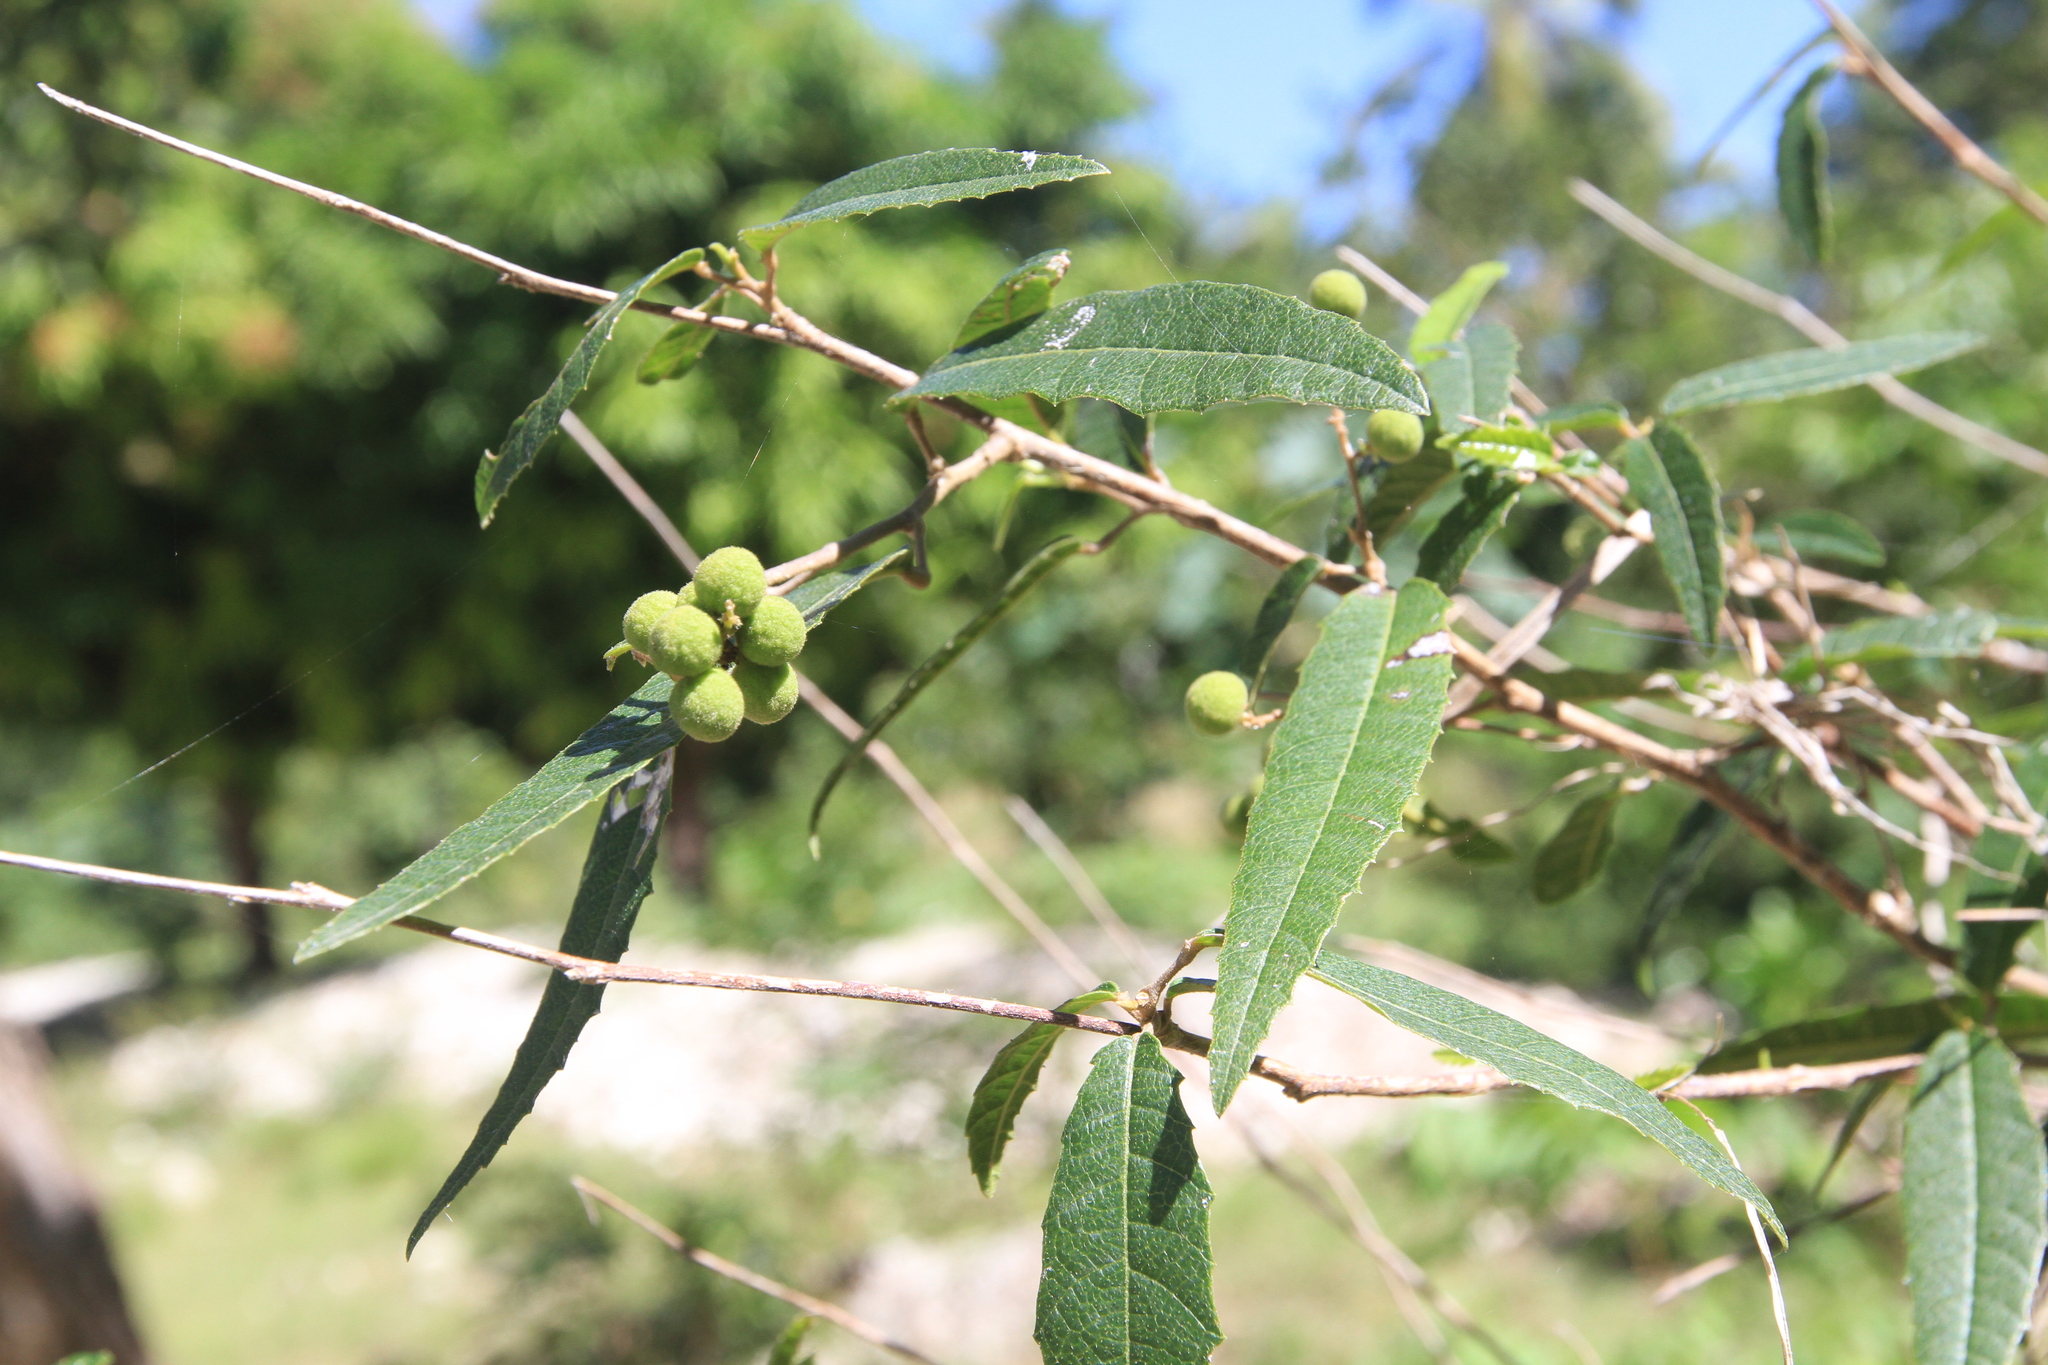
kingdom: Plantae
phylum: Tracheophyta
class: Magnoliopsida
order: Sapindales
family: Sapindaceae
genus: Allophylus
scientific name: Allophylus rigidus
